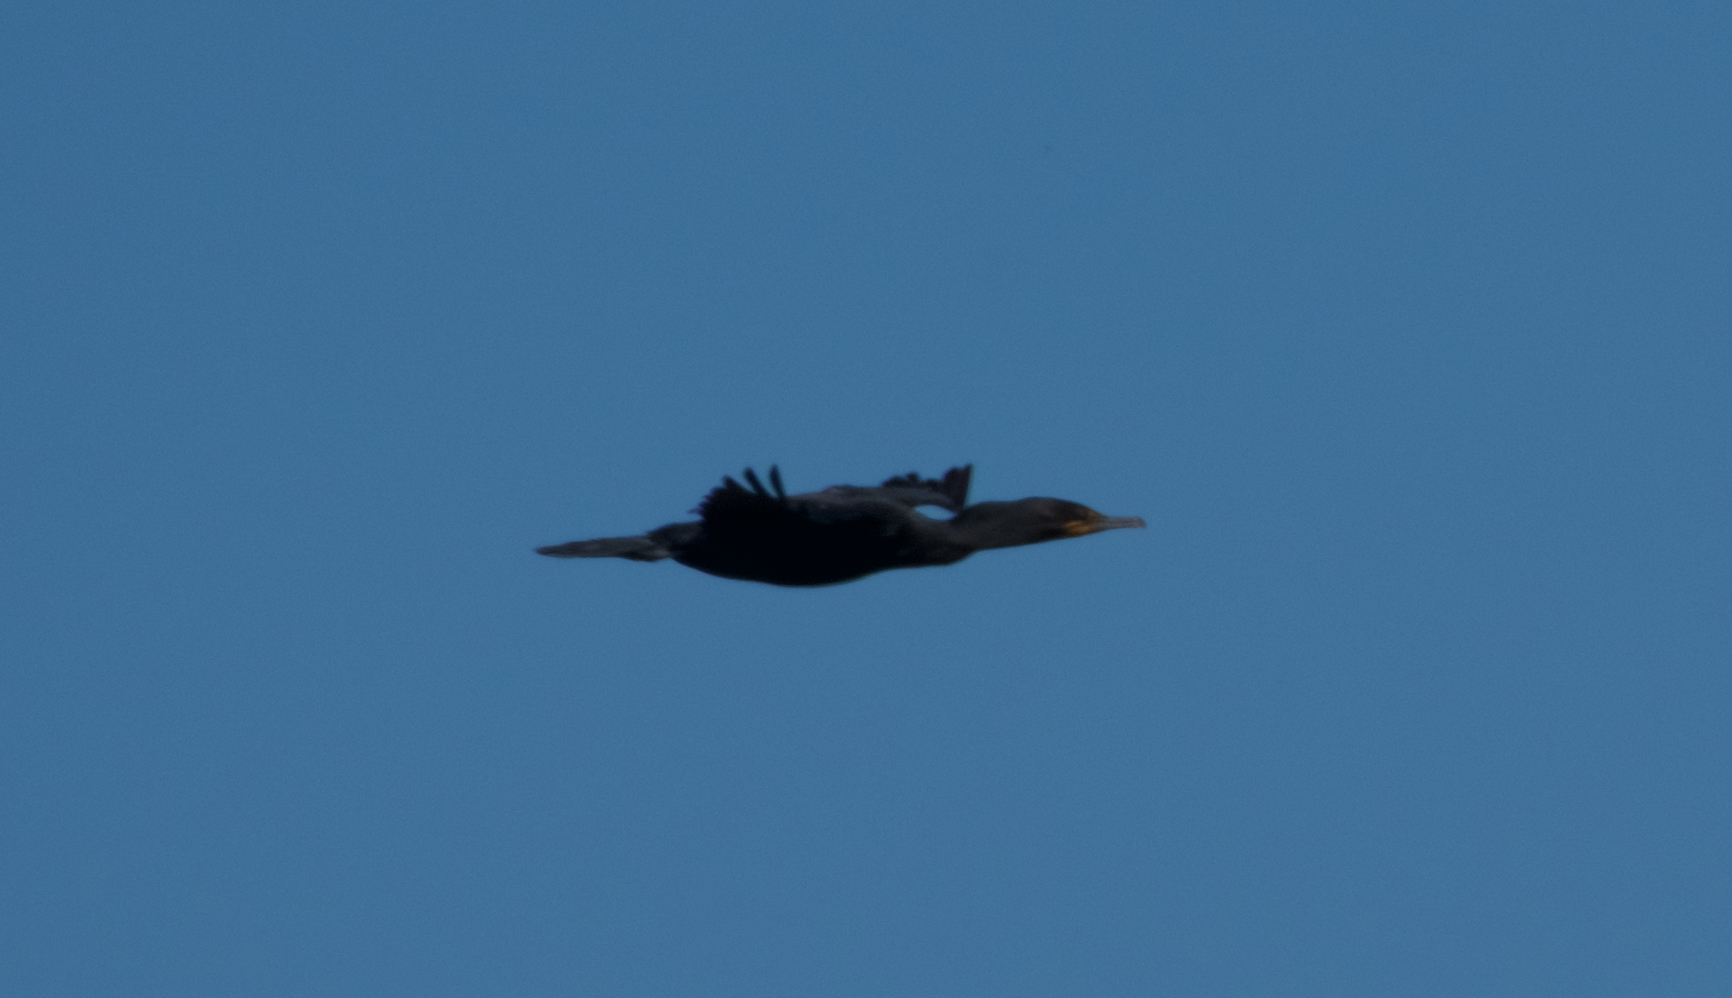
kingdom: Animalia
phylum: Chordata
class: Aves
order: Suliformes
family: Phalacrocoracidae
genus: Phalacrocorax
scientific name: Phalacrocorax auritus
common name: Double-crested cormorant
